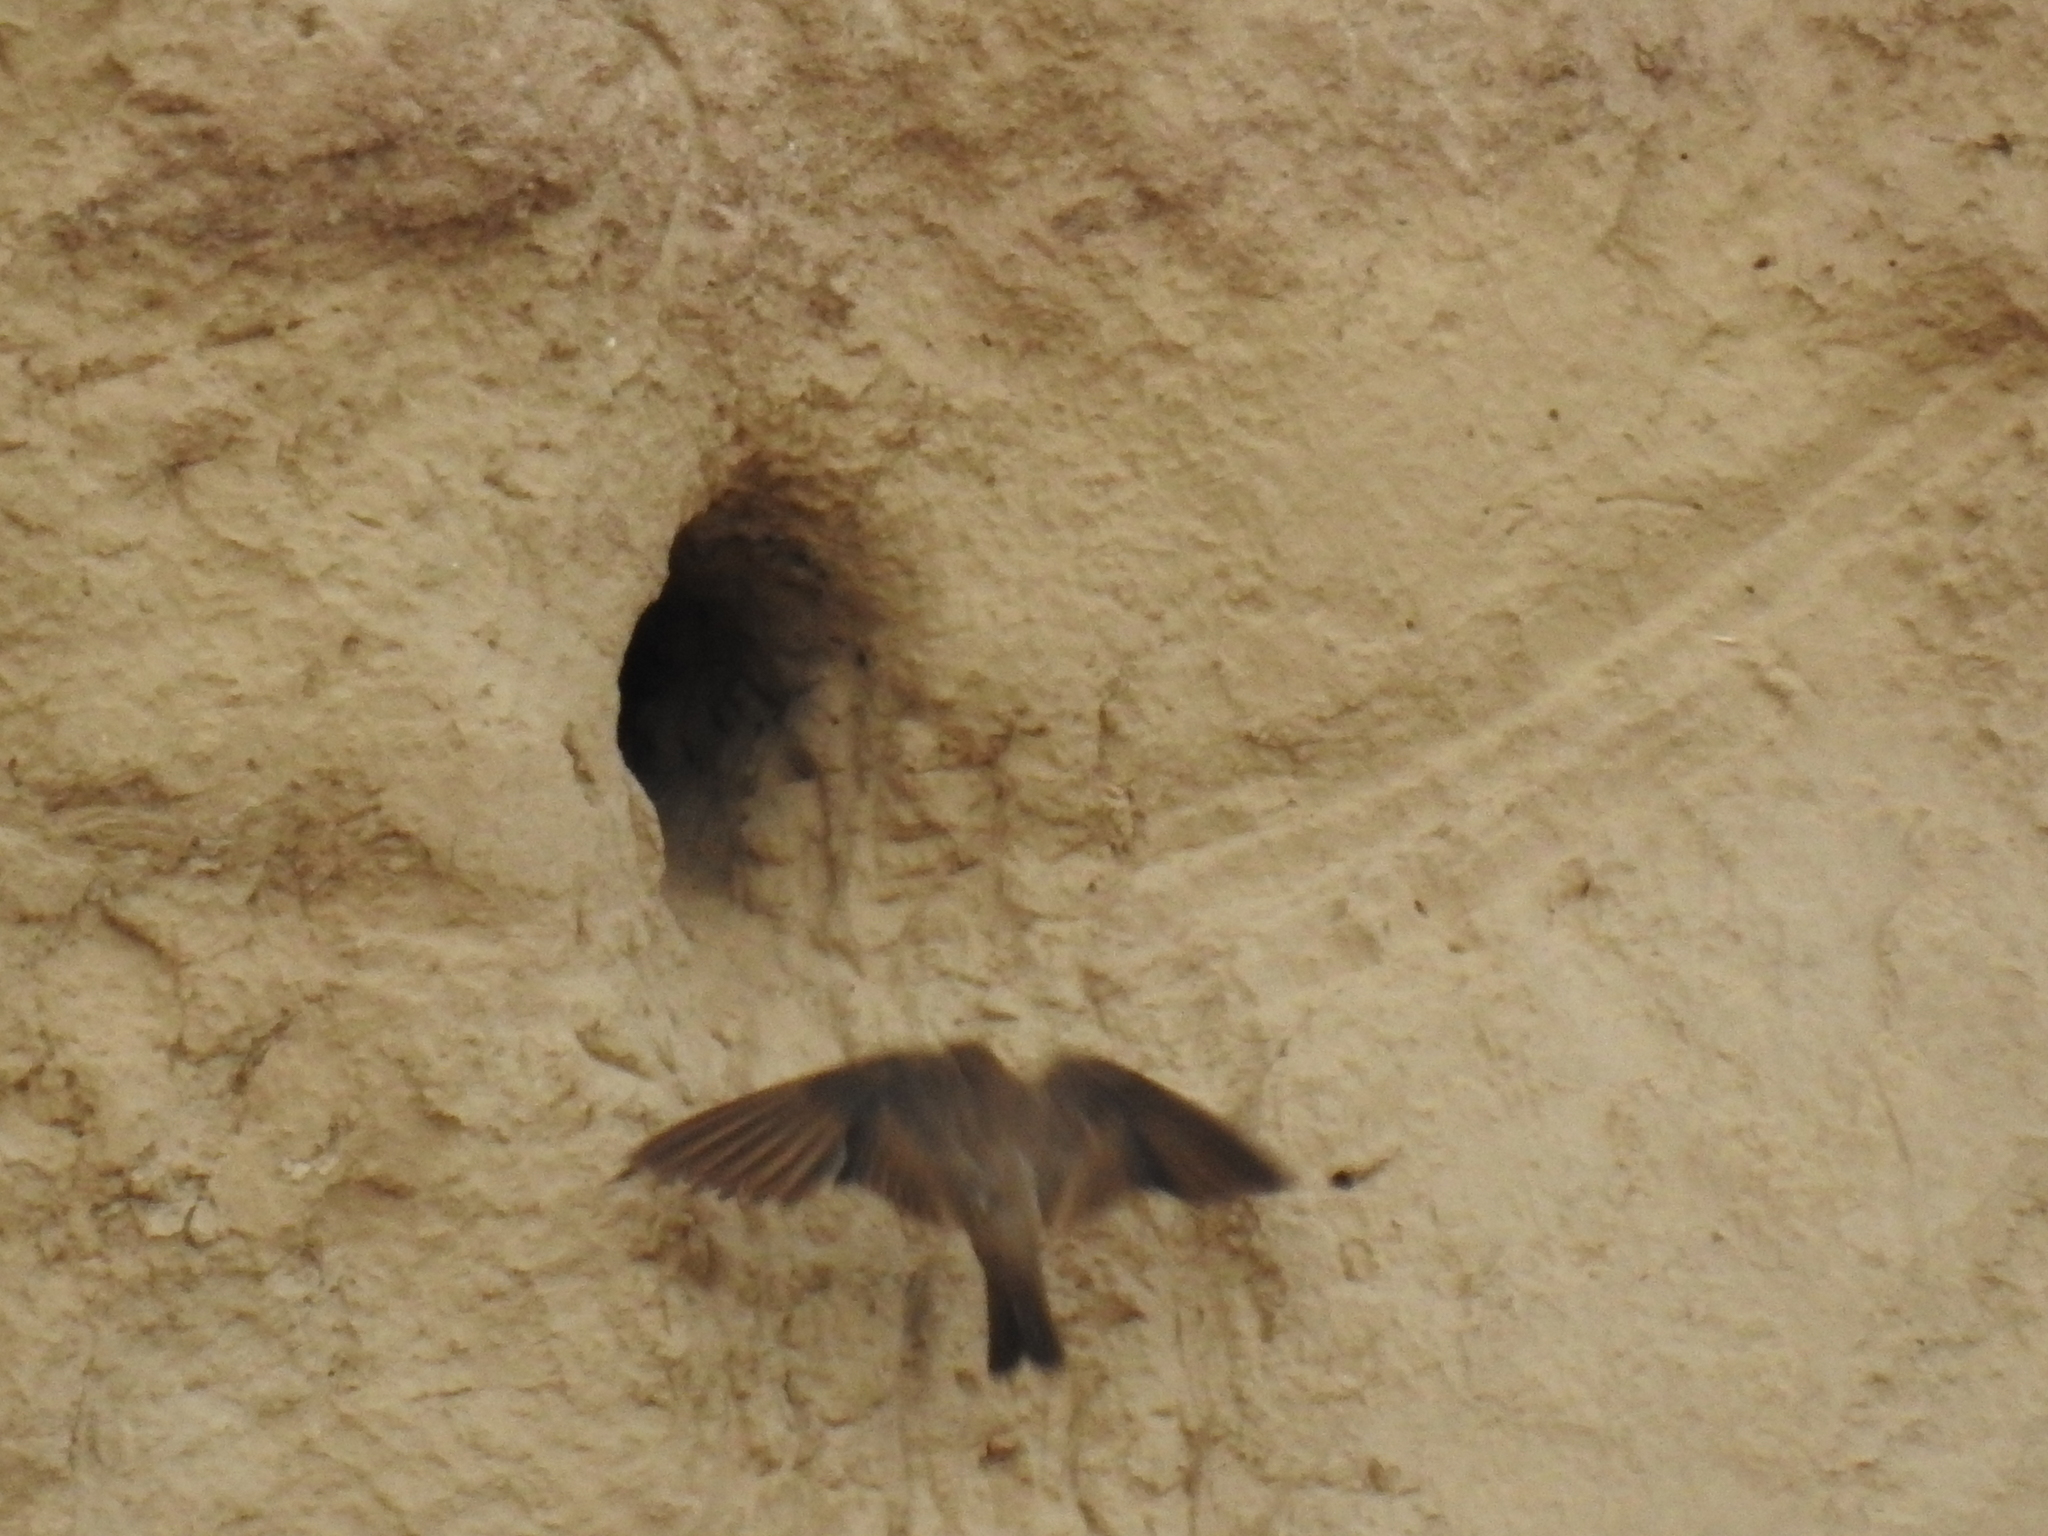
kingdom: Animalia
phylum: Chordata
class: Aves
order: Passeriformes
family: Hirundinidae
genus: Stelgidopteryx
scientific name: Stelgidopteryx serripennis
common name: Northern rough-winged swallow
